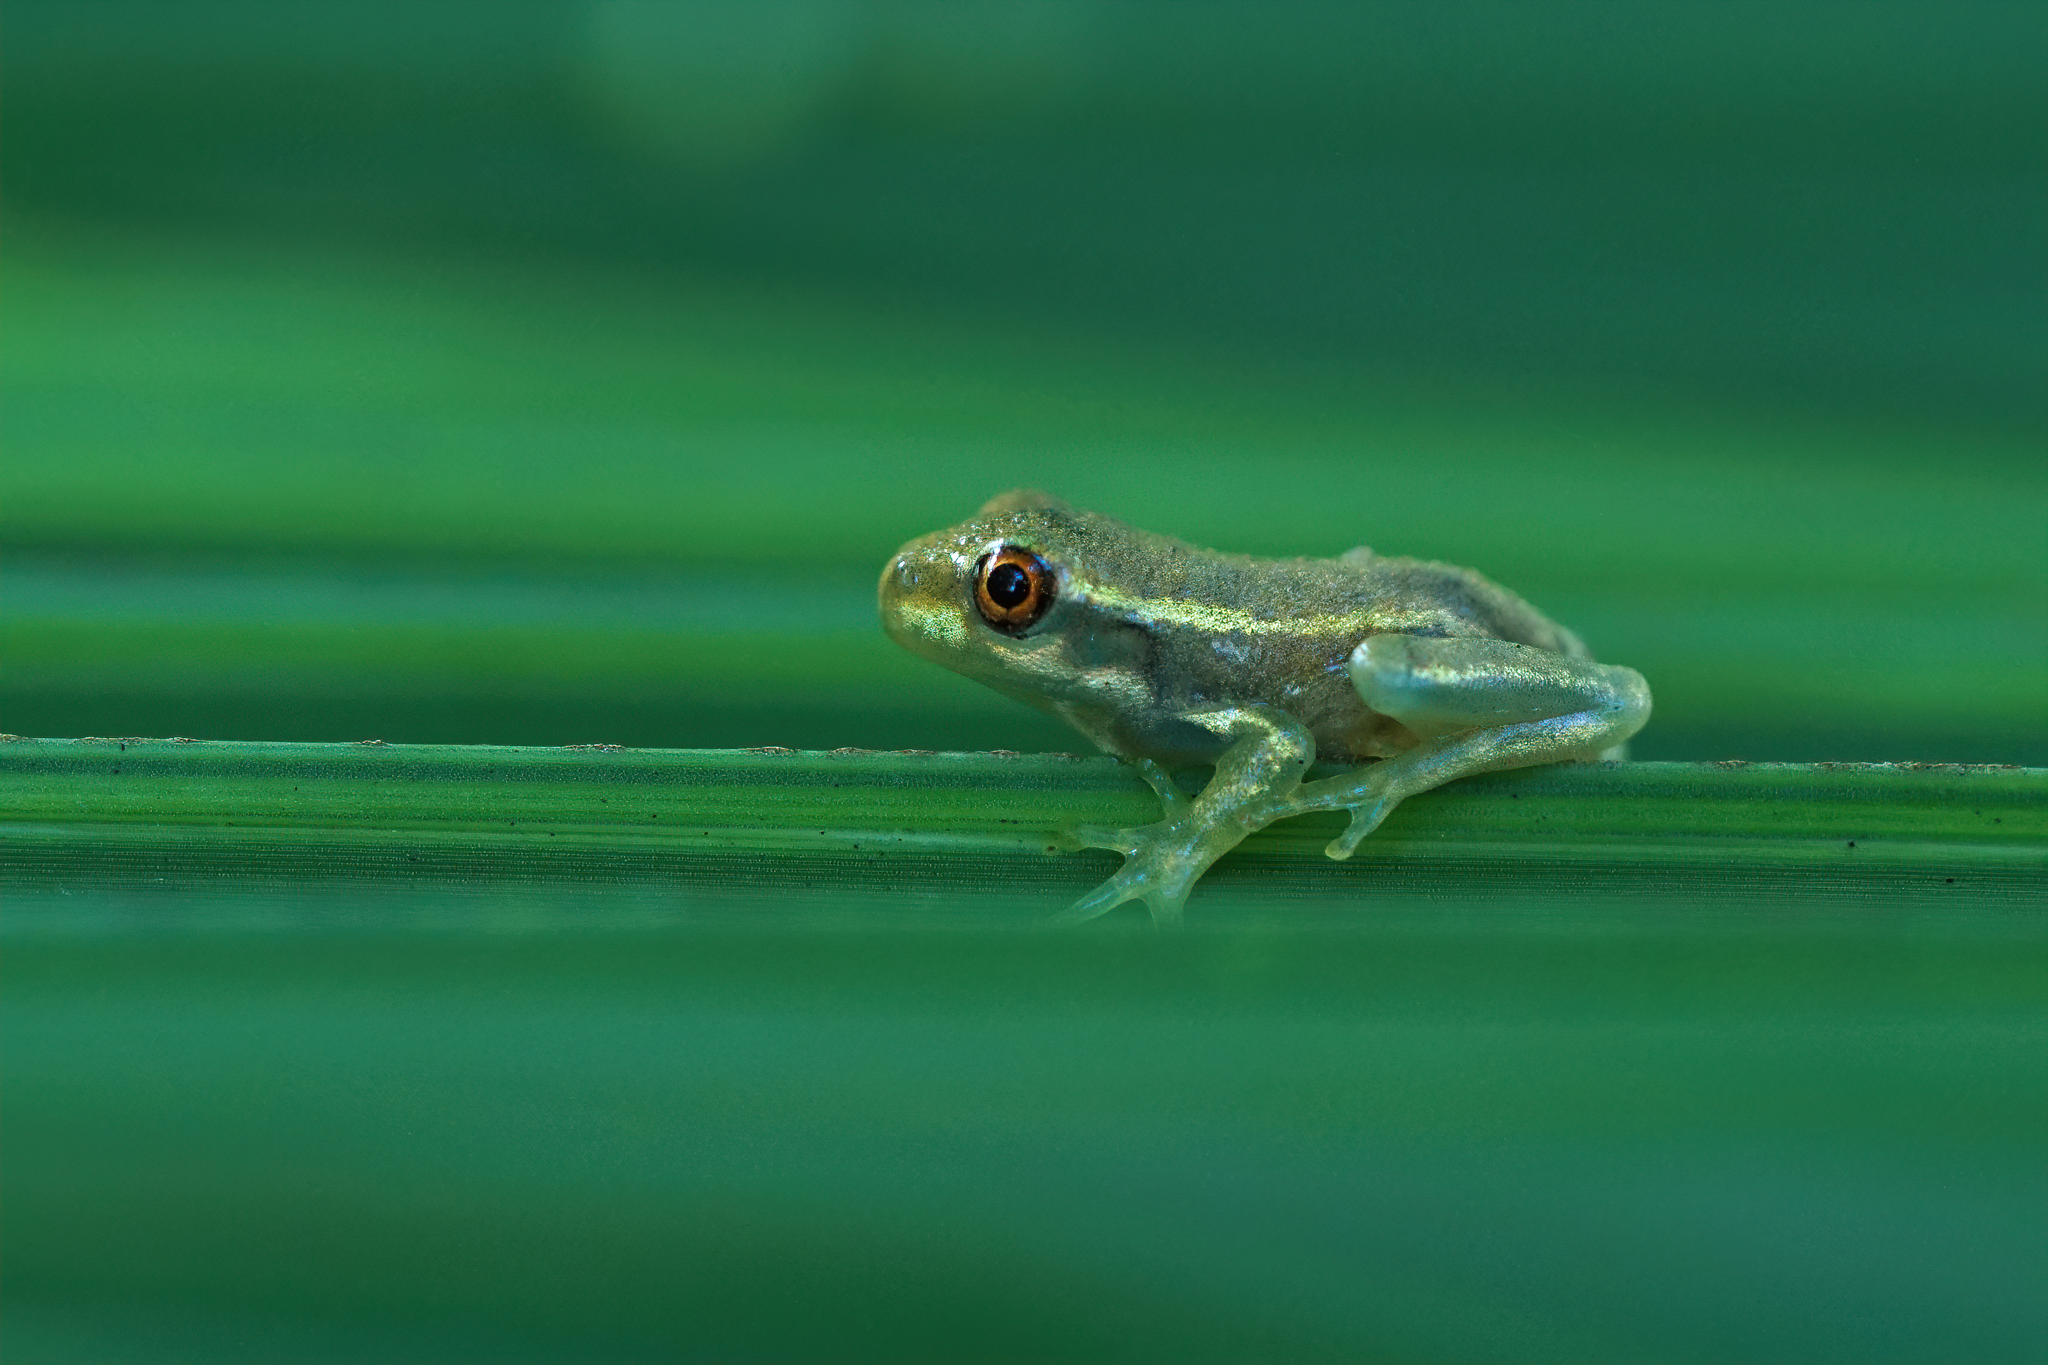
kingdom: Animalia
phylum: Chordata
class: Amphibia
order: Anura
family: Hylidae
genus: Osteopilus
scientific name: Osteopilus septentrionalis
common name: Cuban treefrog
